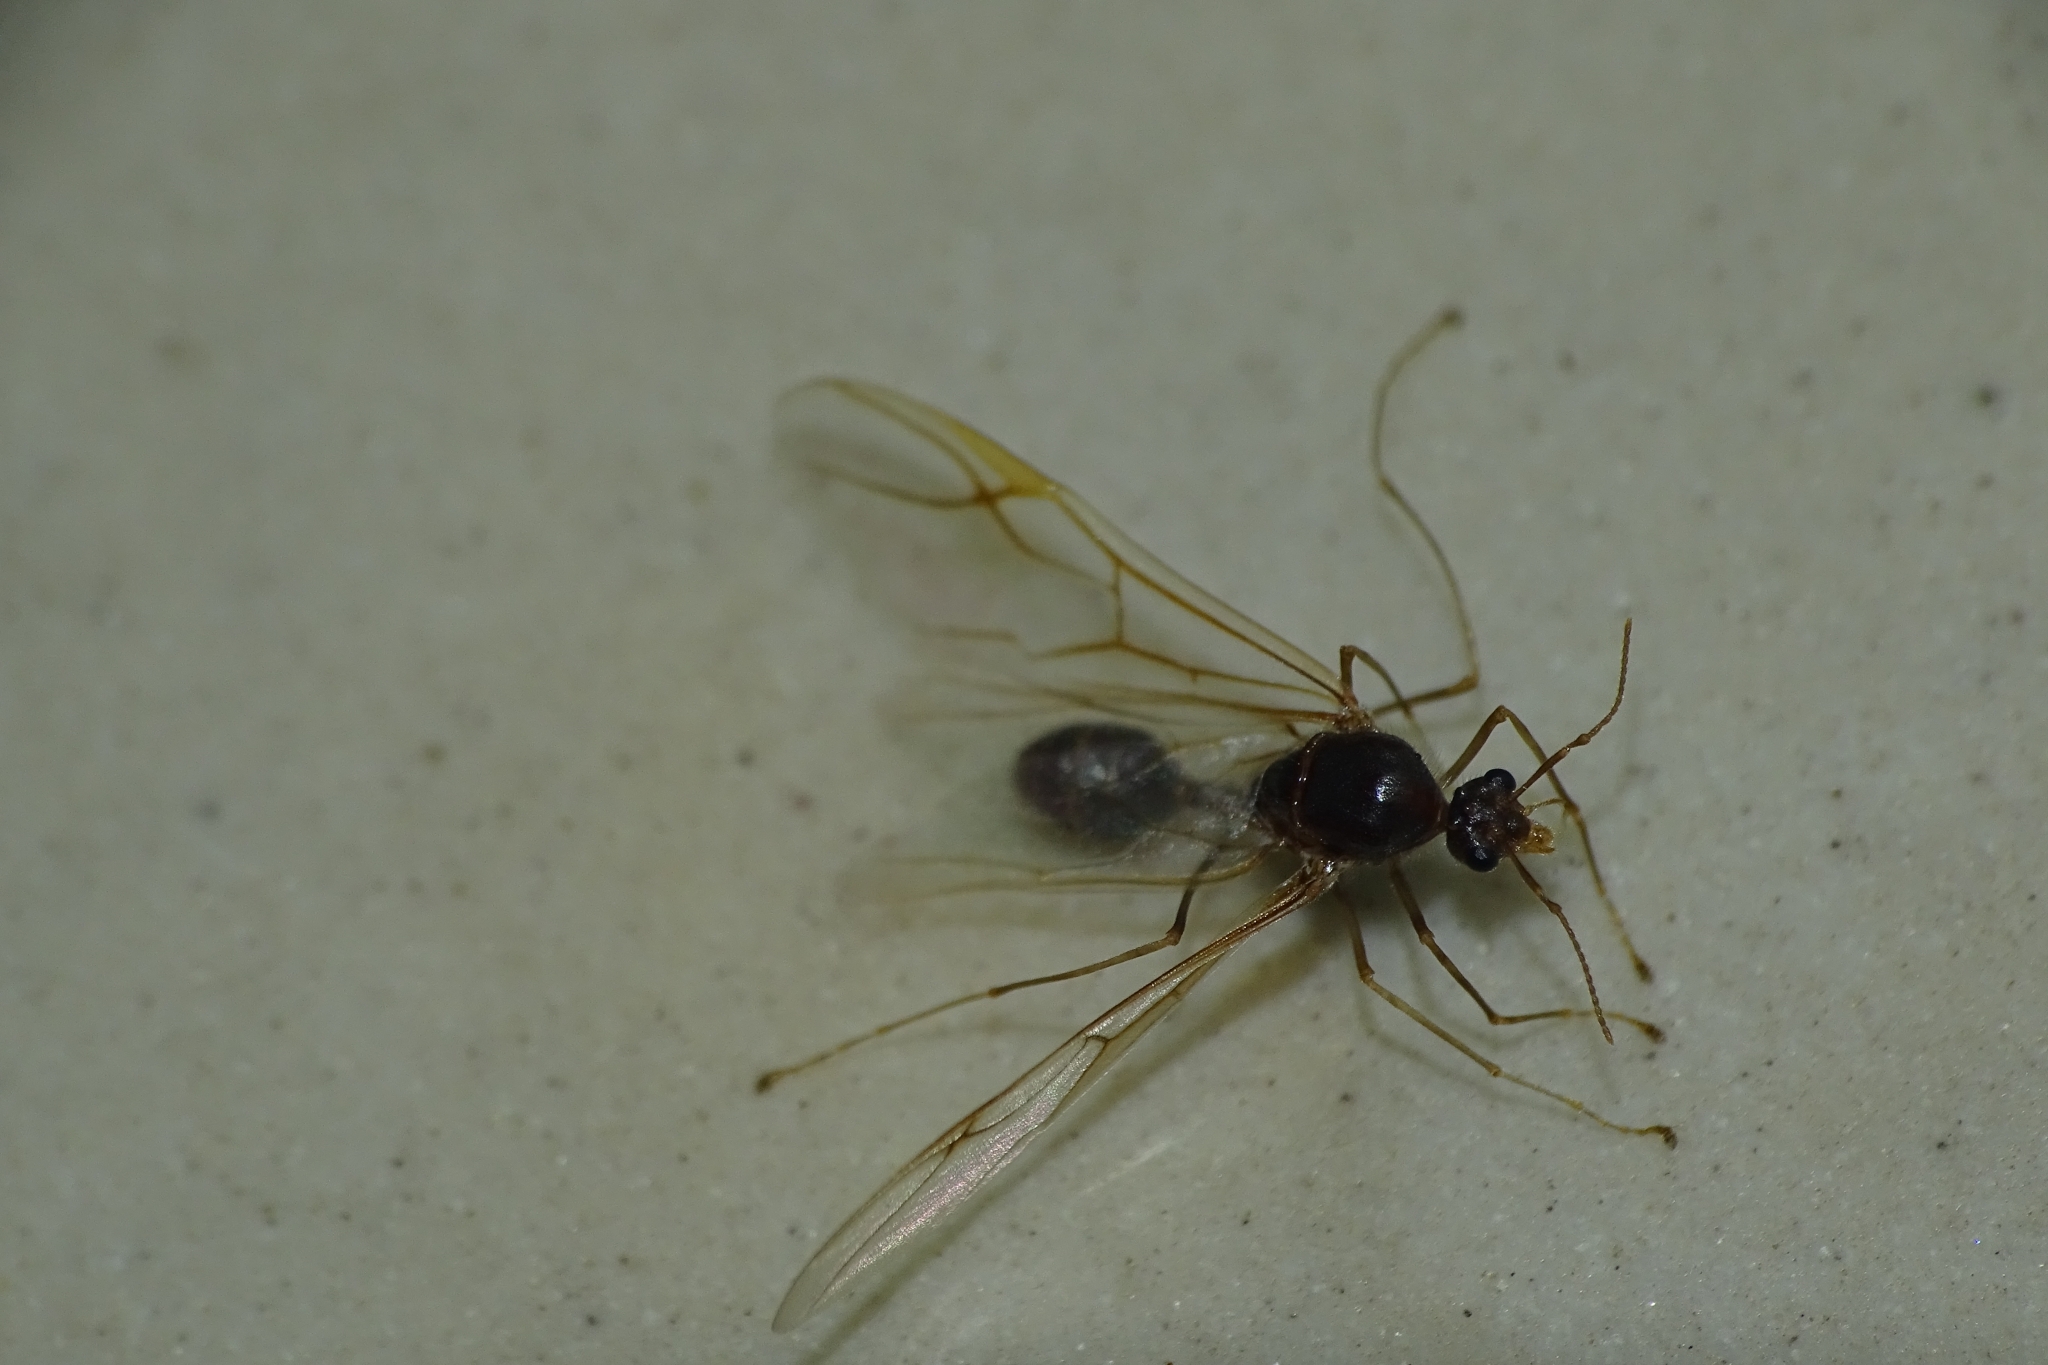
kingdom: Animalia
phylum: Arthropoda
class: Insecta
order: Hymenoptera
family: Formicidae
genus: Oecophylla
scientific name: Oecophylla smaragdina
